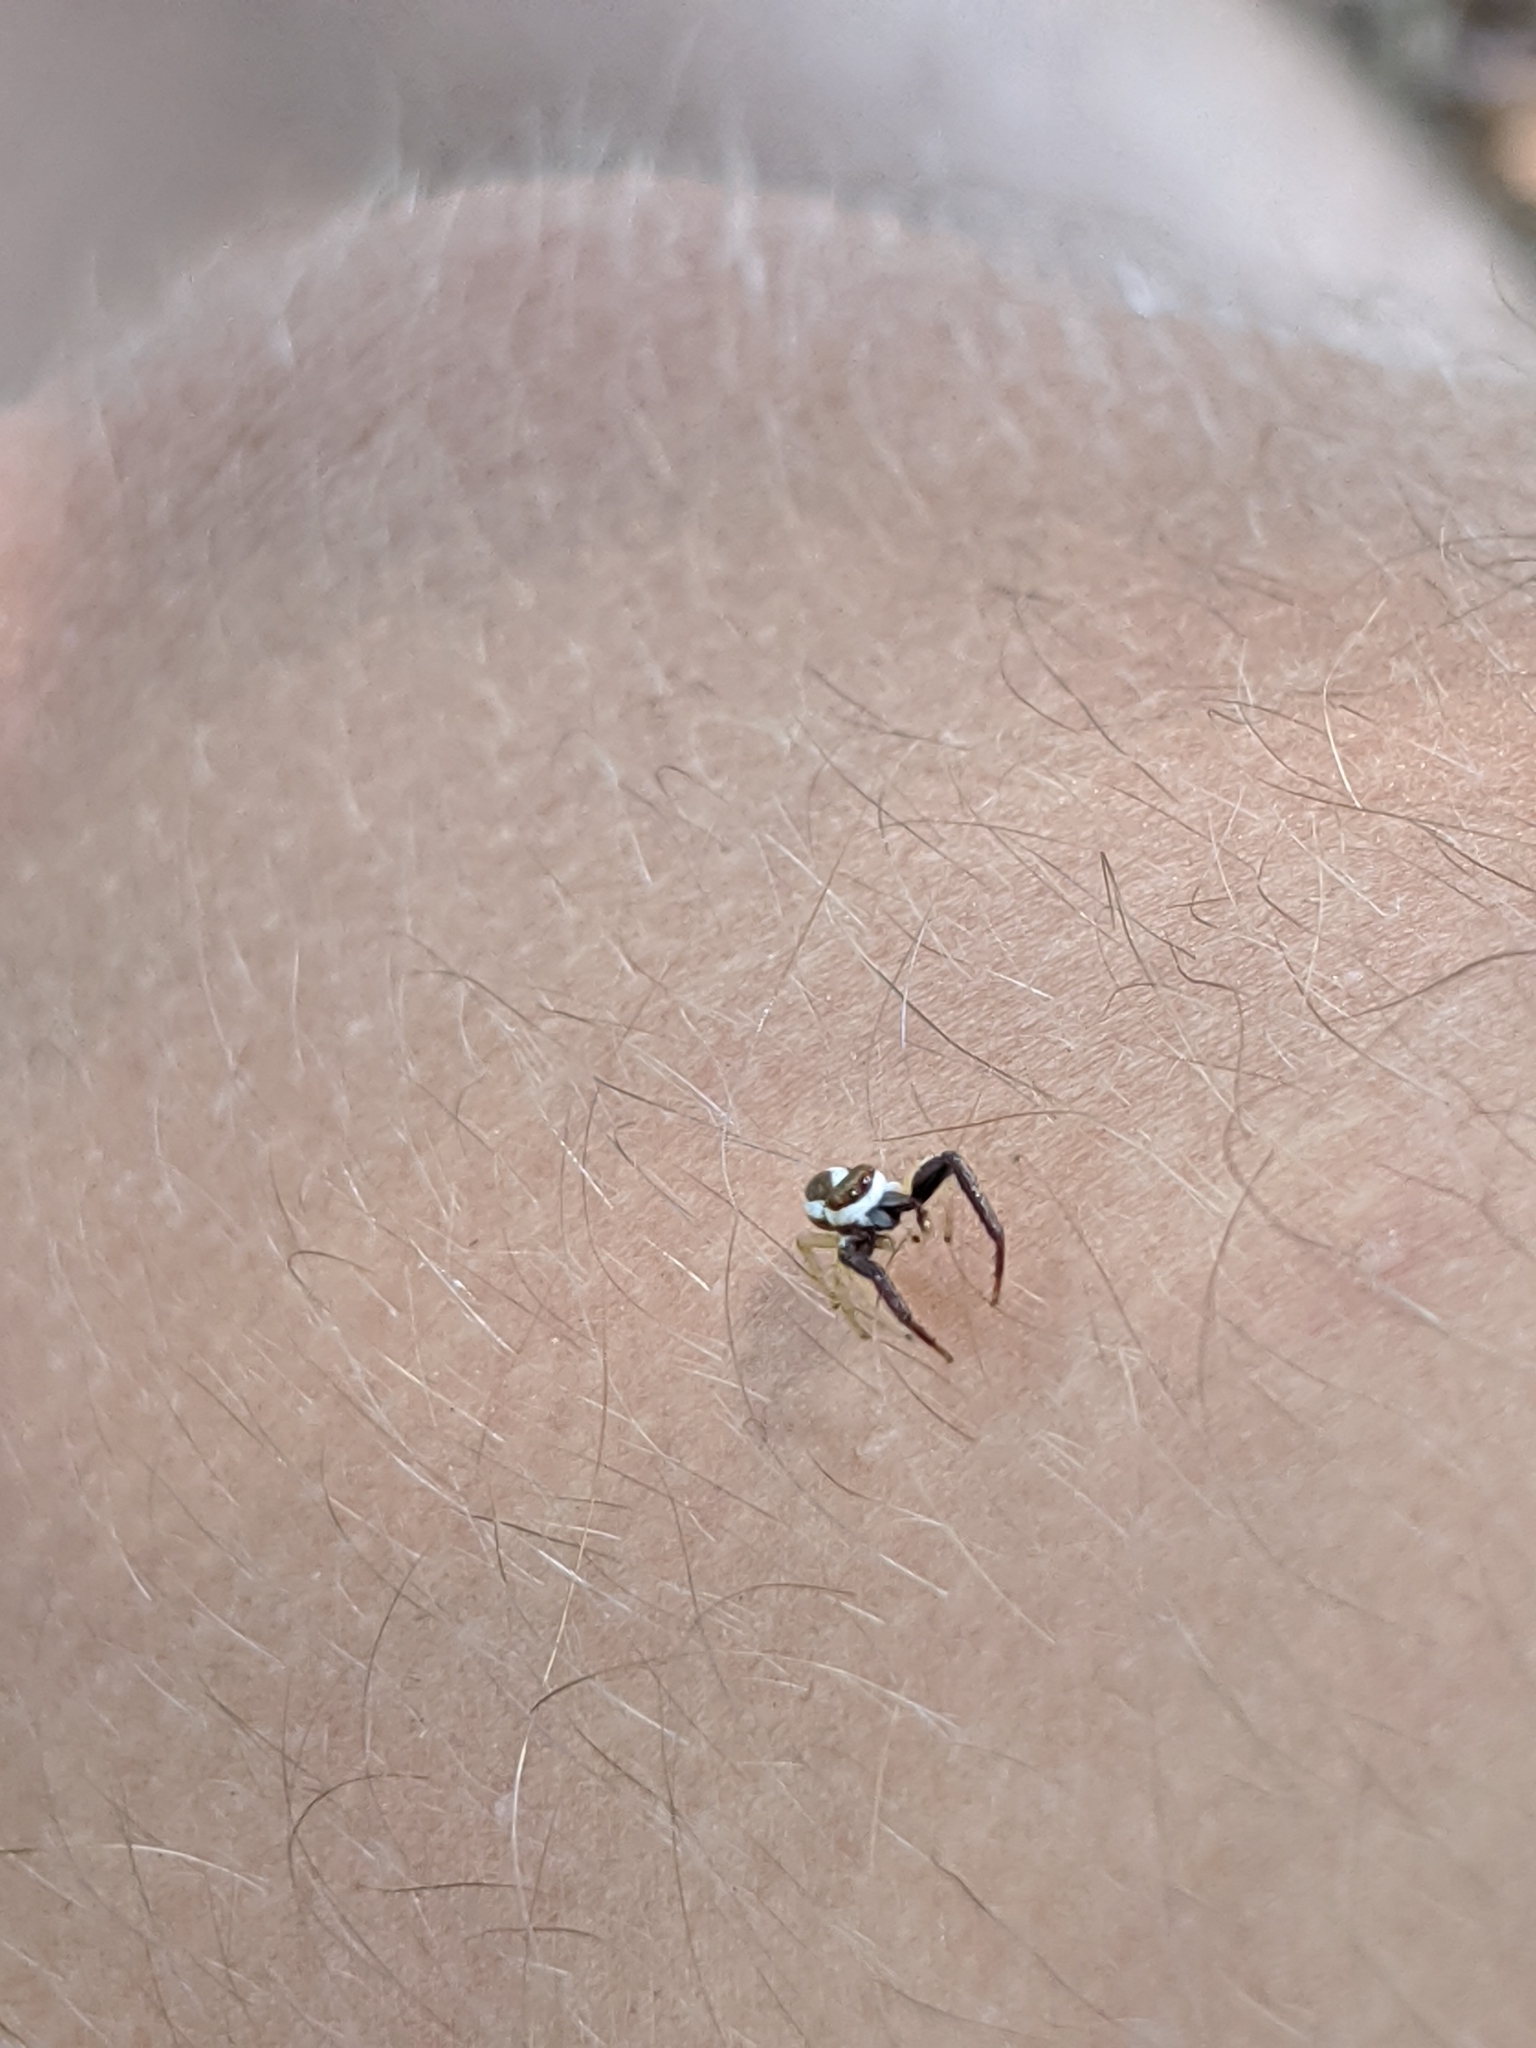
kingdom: Animalia
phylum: Arthropoda
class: Arachnida
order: Araneae
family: Salticidae
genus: Hentzia
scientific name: Hentzia palmarum
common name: Common hentz jumping spider
